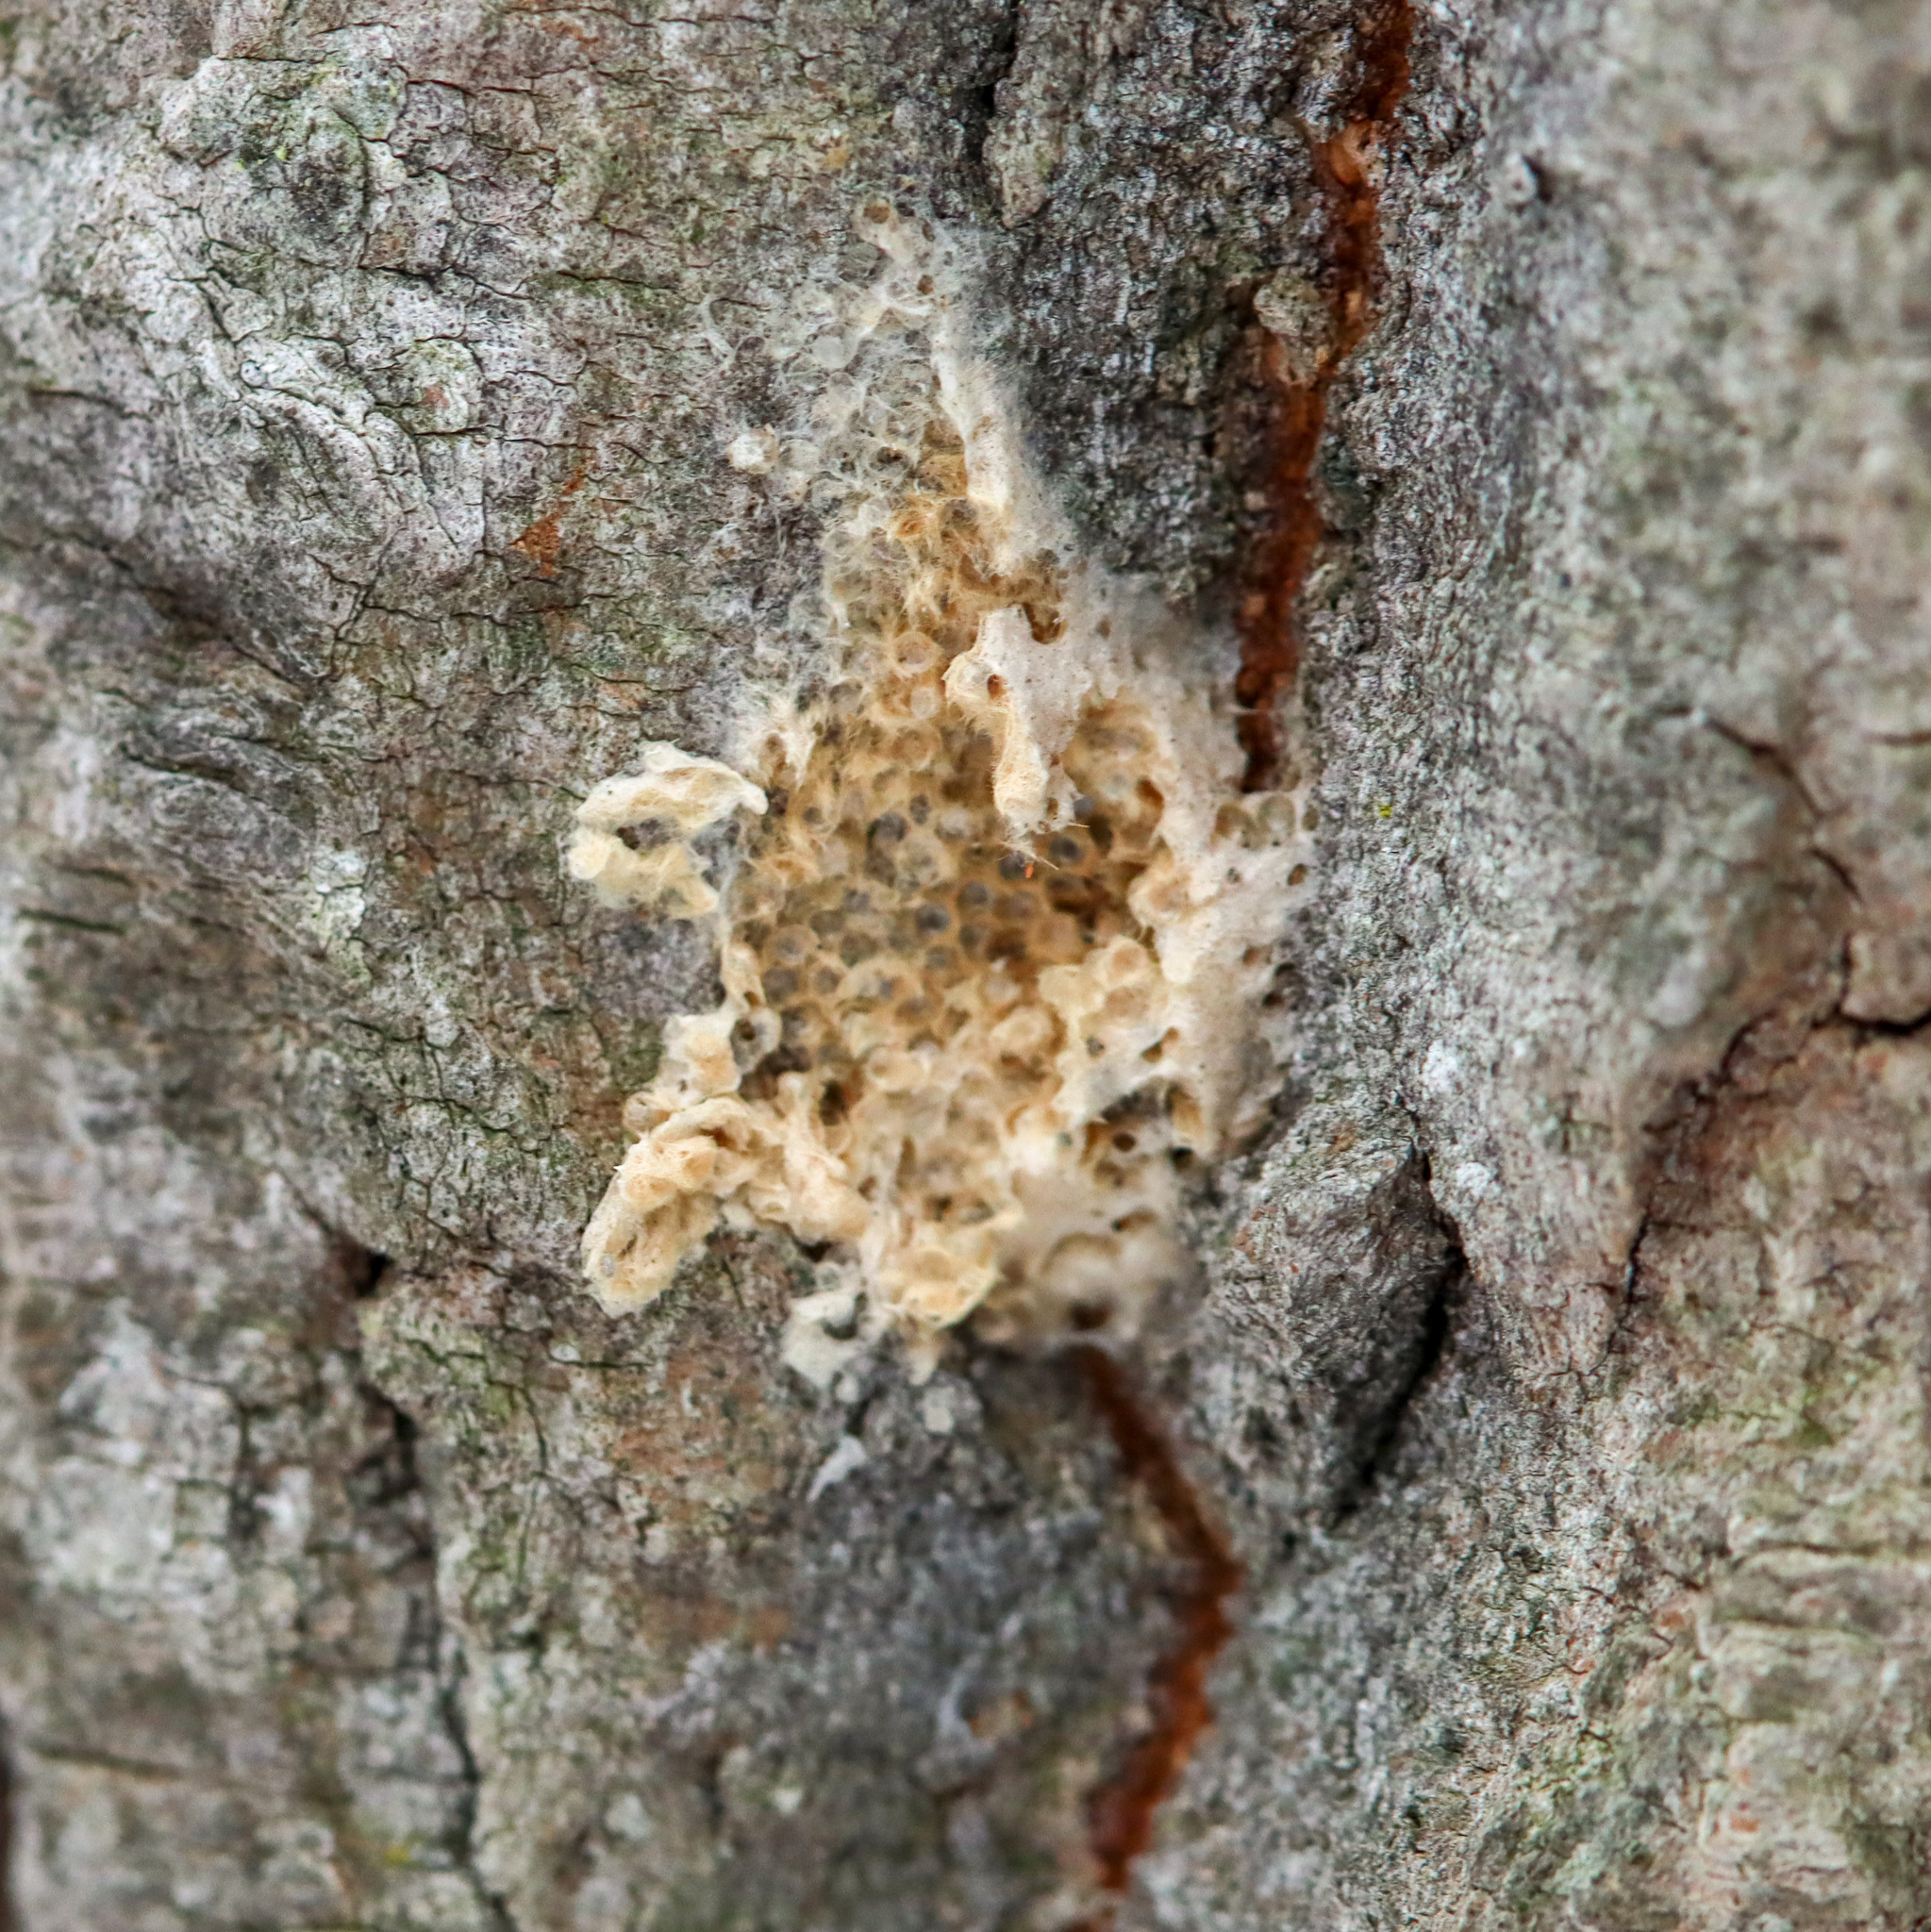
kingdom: Animalia
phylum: Arthropoda
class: Insecta
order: Lepidoptera
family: Erebidae
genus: Lymantria
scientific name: Lymantria dispar
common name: Gypsy moth
